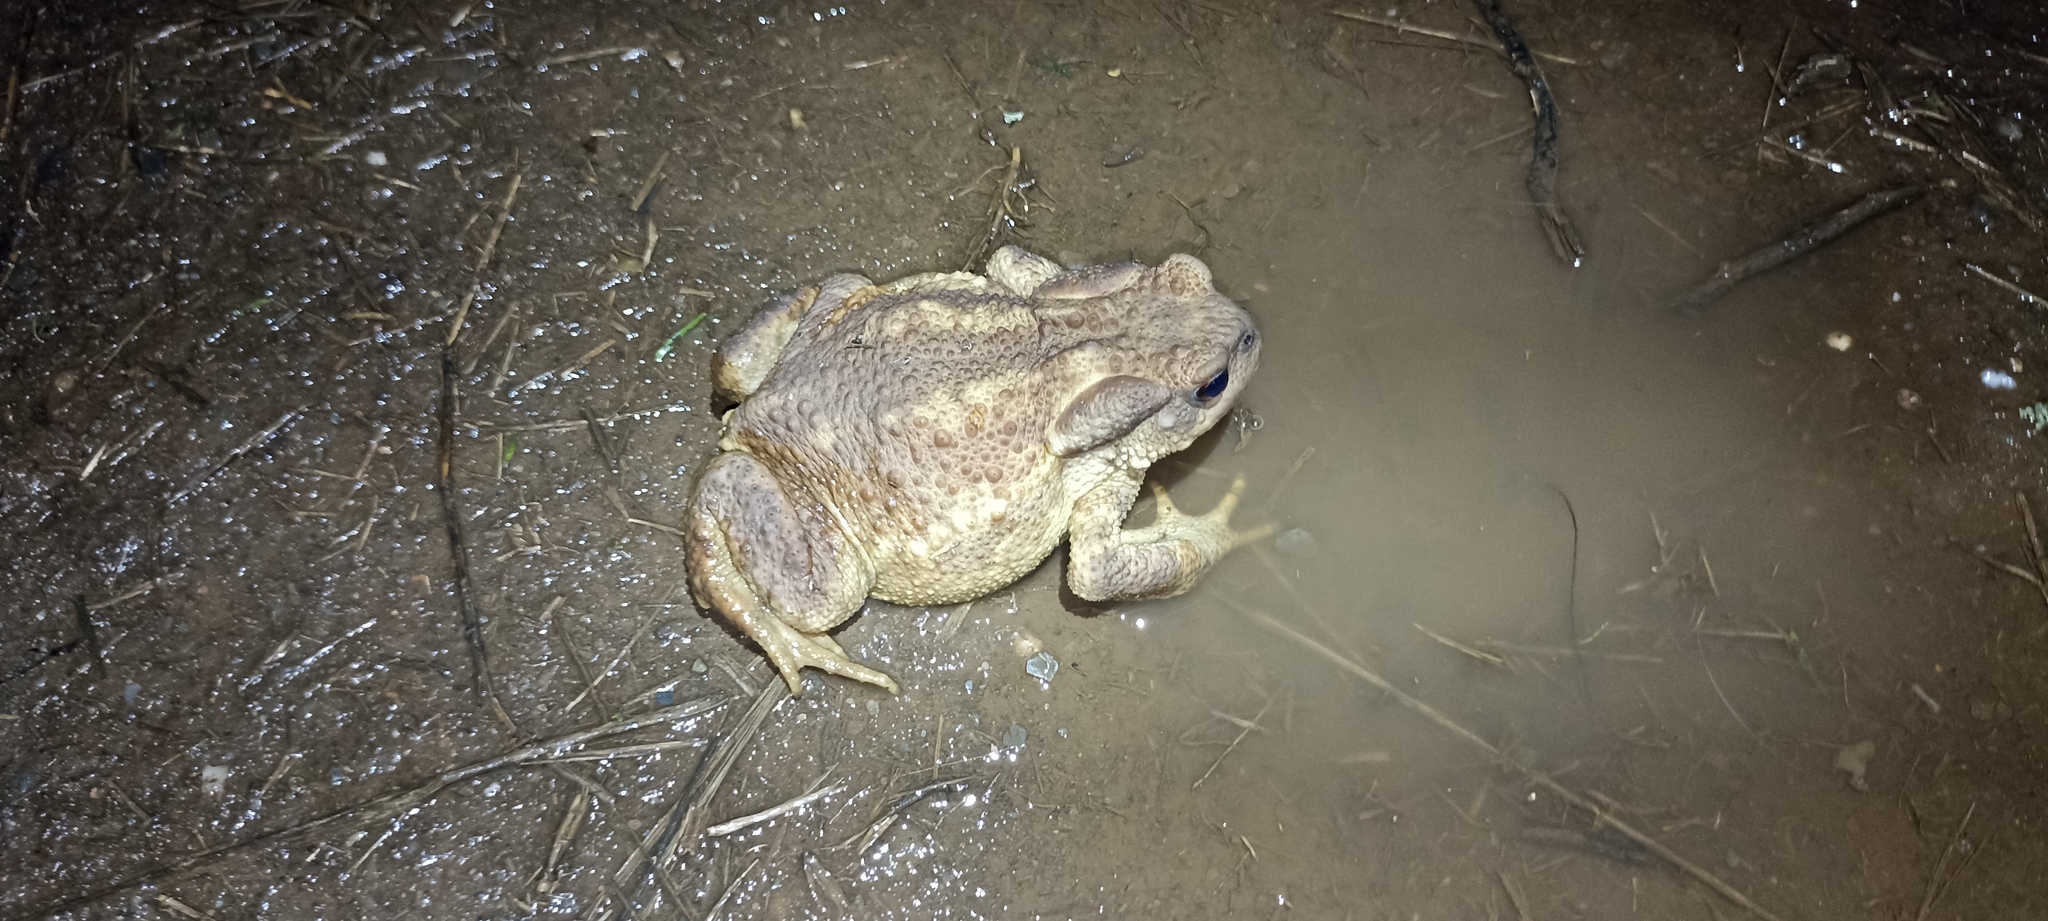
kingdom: Animalia
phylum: Chordata
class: Amphibia
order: Anura
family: Bufonidae
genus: Bufo
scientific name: Bufo spinosus
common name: Western common toad
